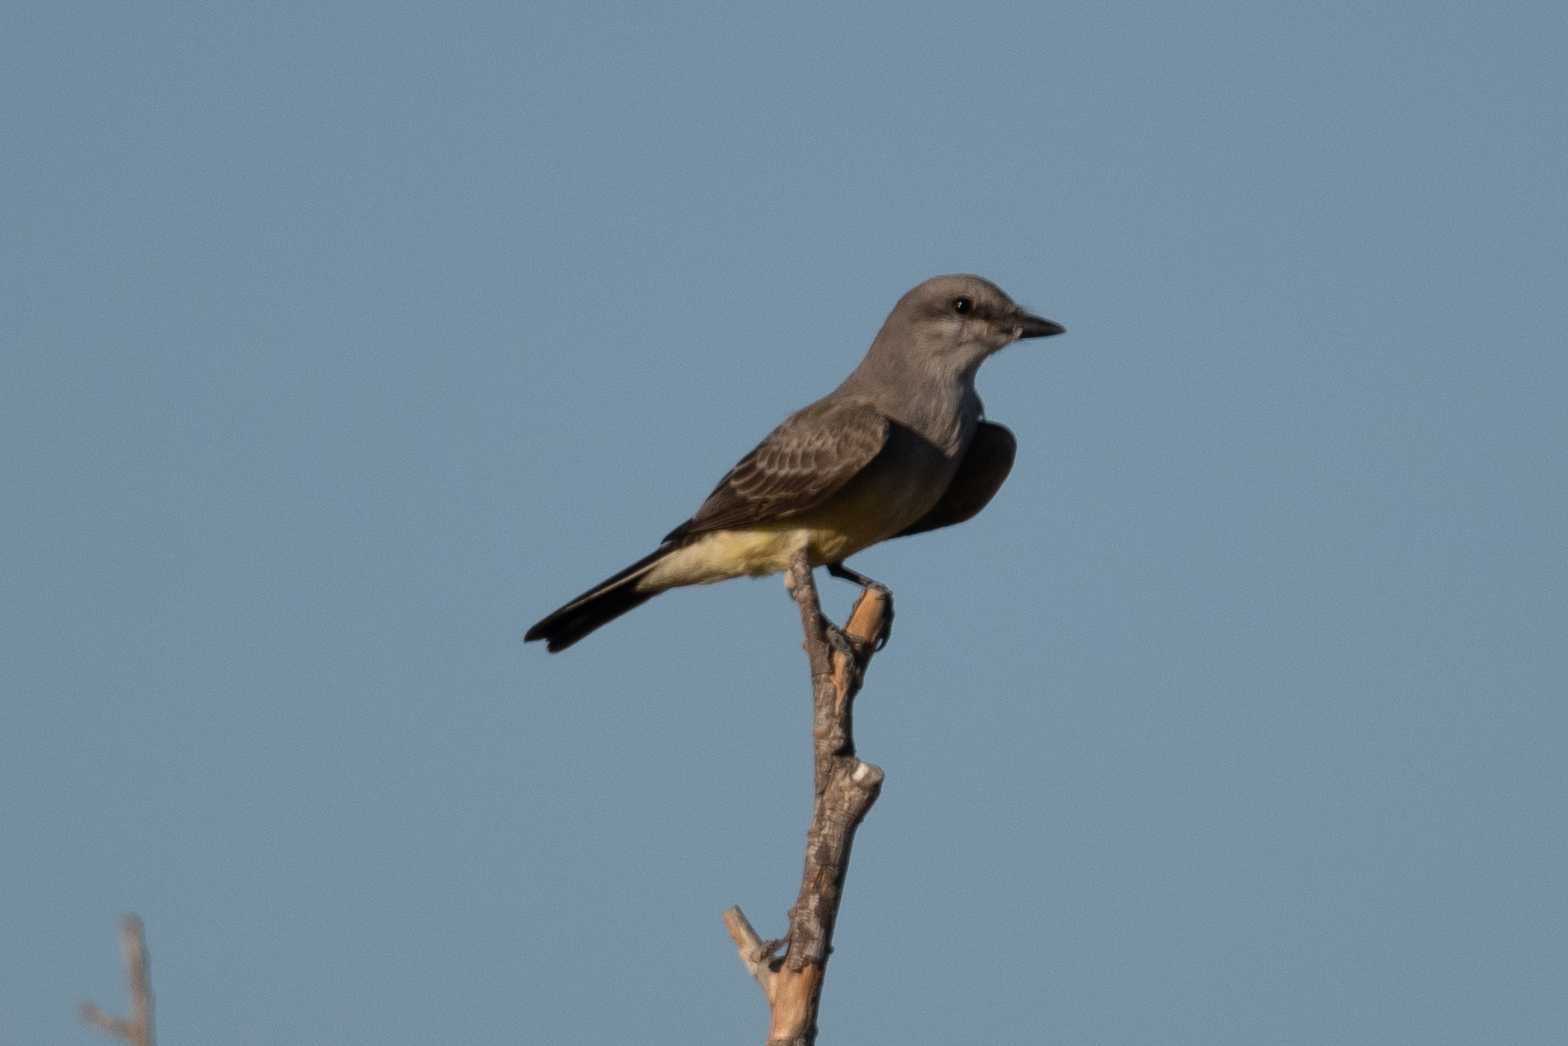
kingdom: Animalia
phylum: Chordata
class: Aves
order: Passeriformes
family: Tyrannidae
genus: Tyrannus
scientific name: Tyrannus verticalis
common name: Western kingbird
